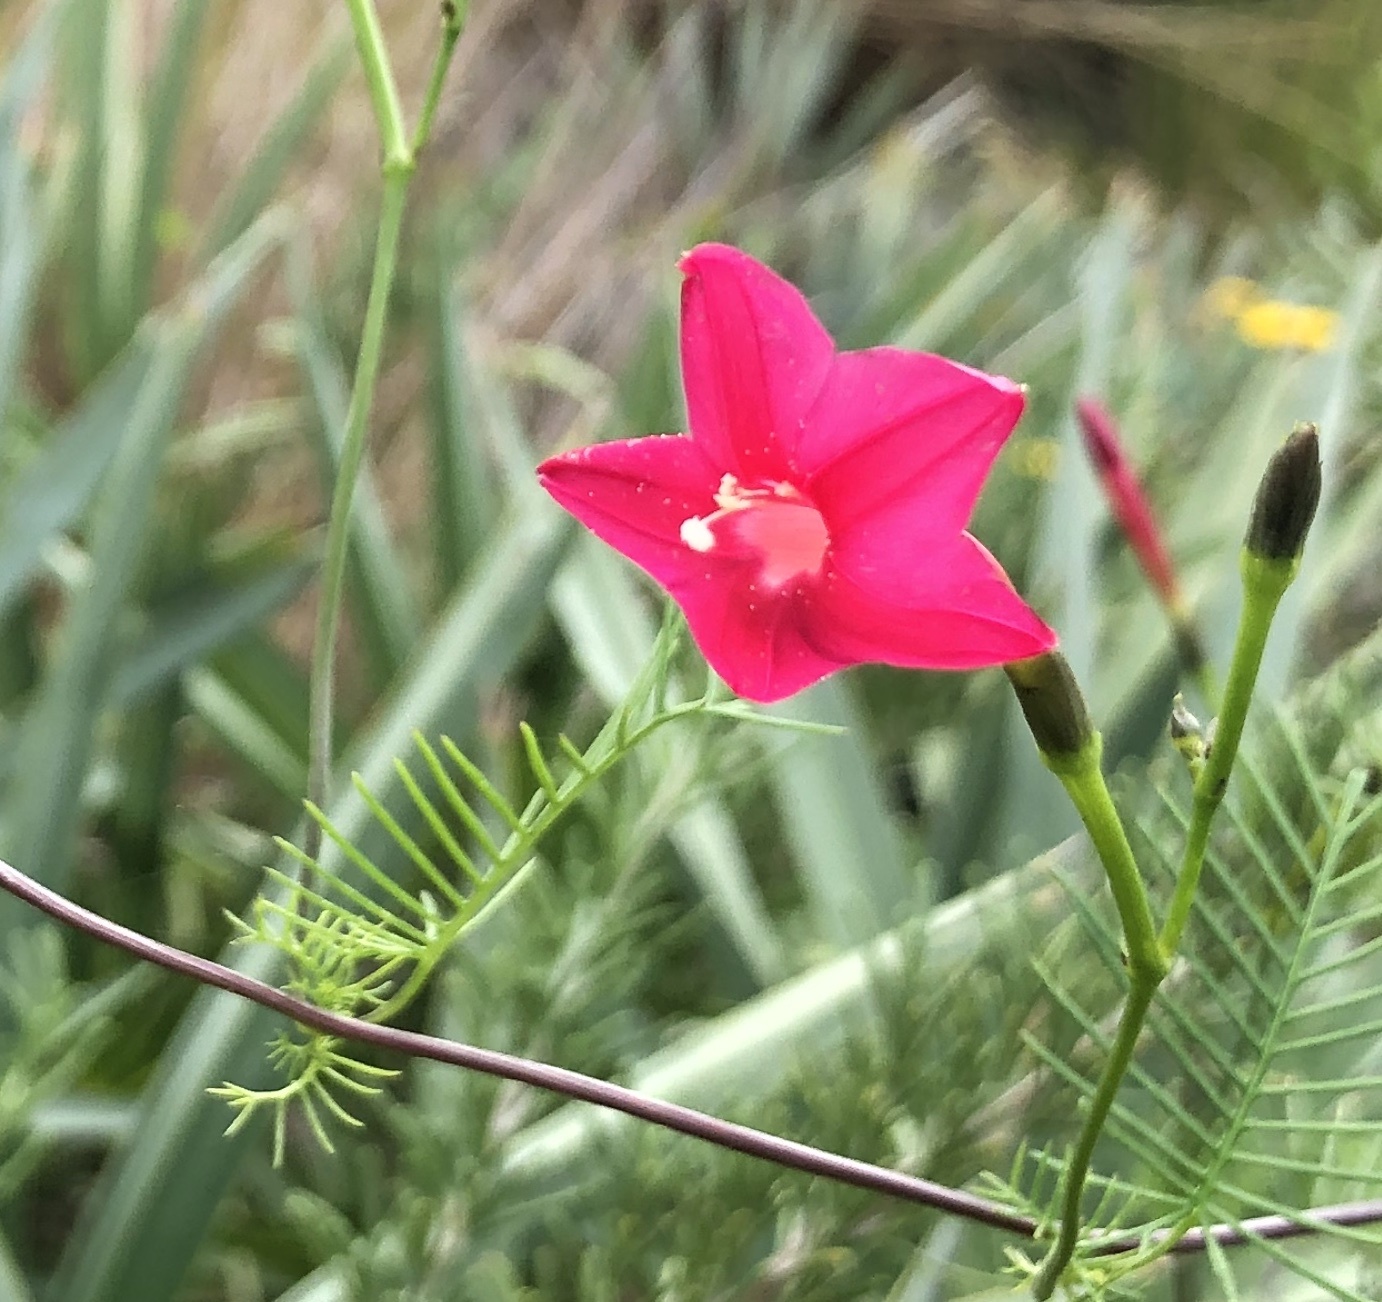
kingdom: Plantae
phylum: Tracheophyta
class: Magnoliopsida
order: Solanales
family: Convolvulaceae
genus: Ipomoea
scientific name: Ipomoea quamoclit
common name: Cypress vine
